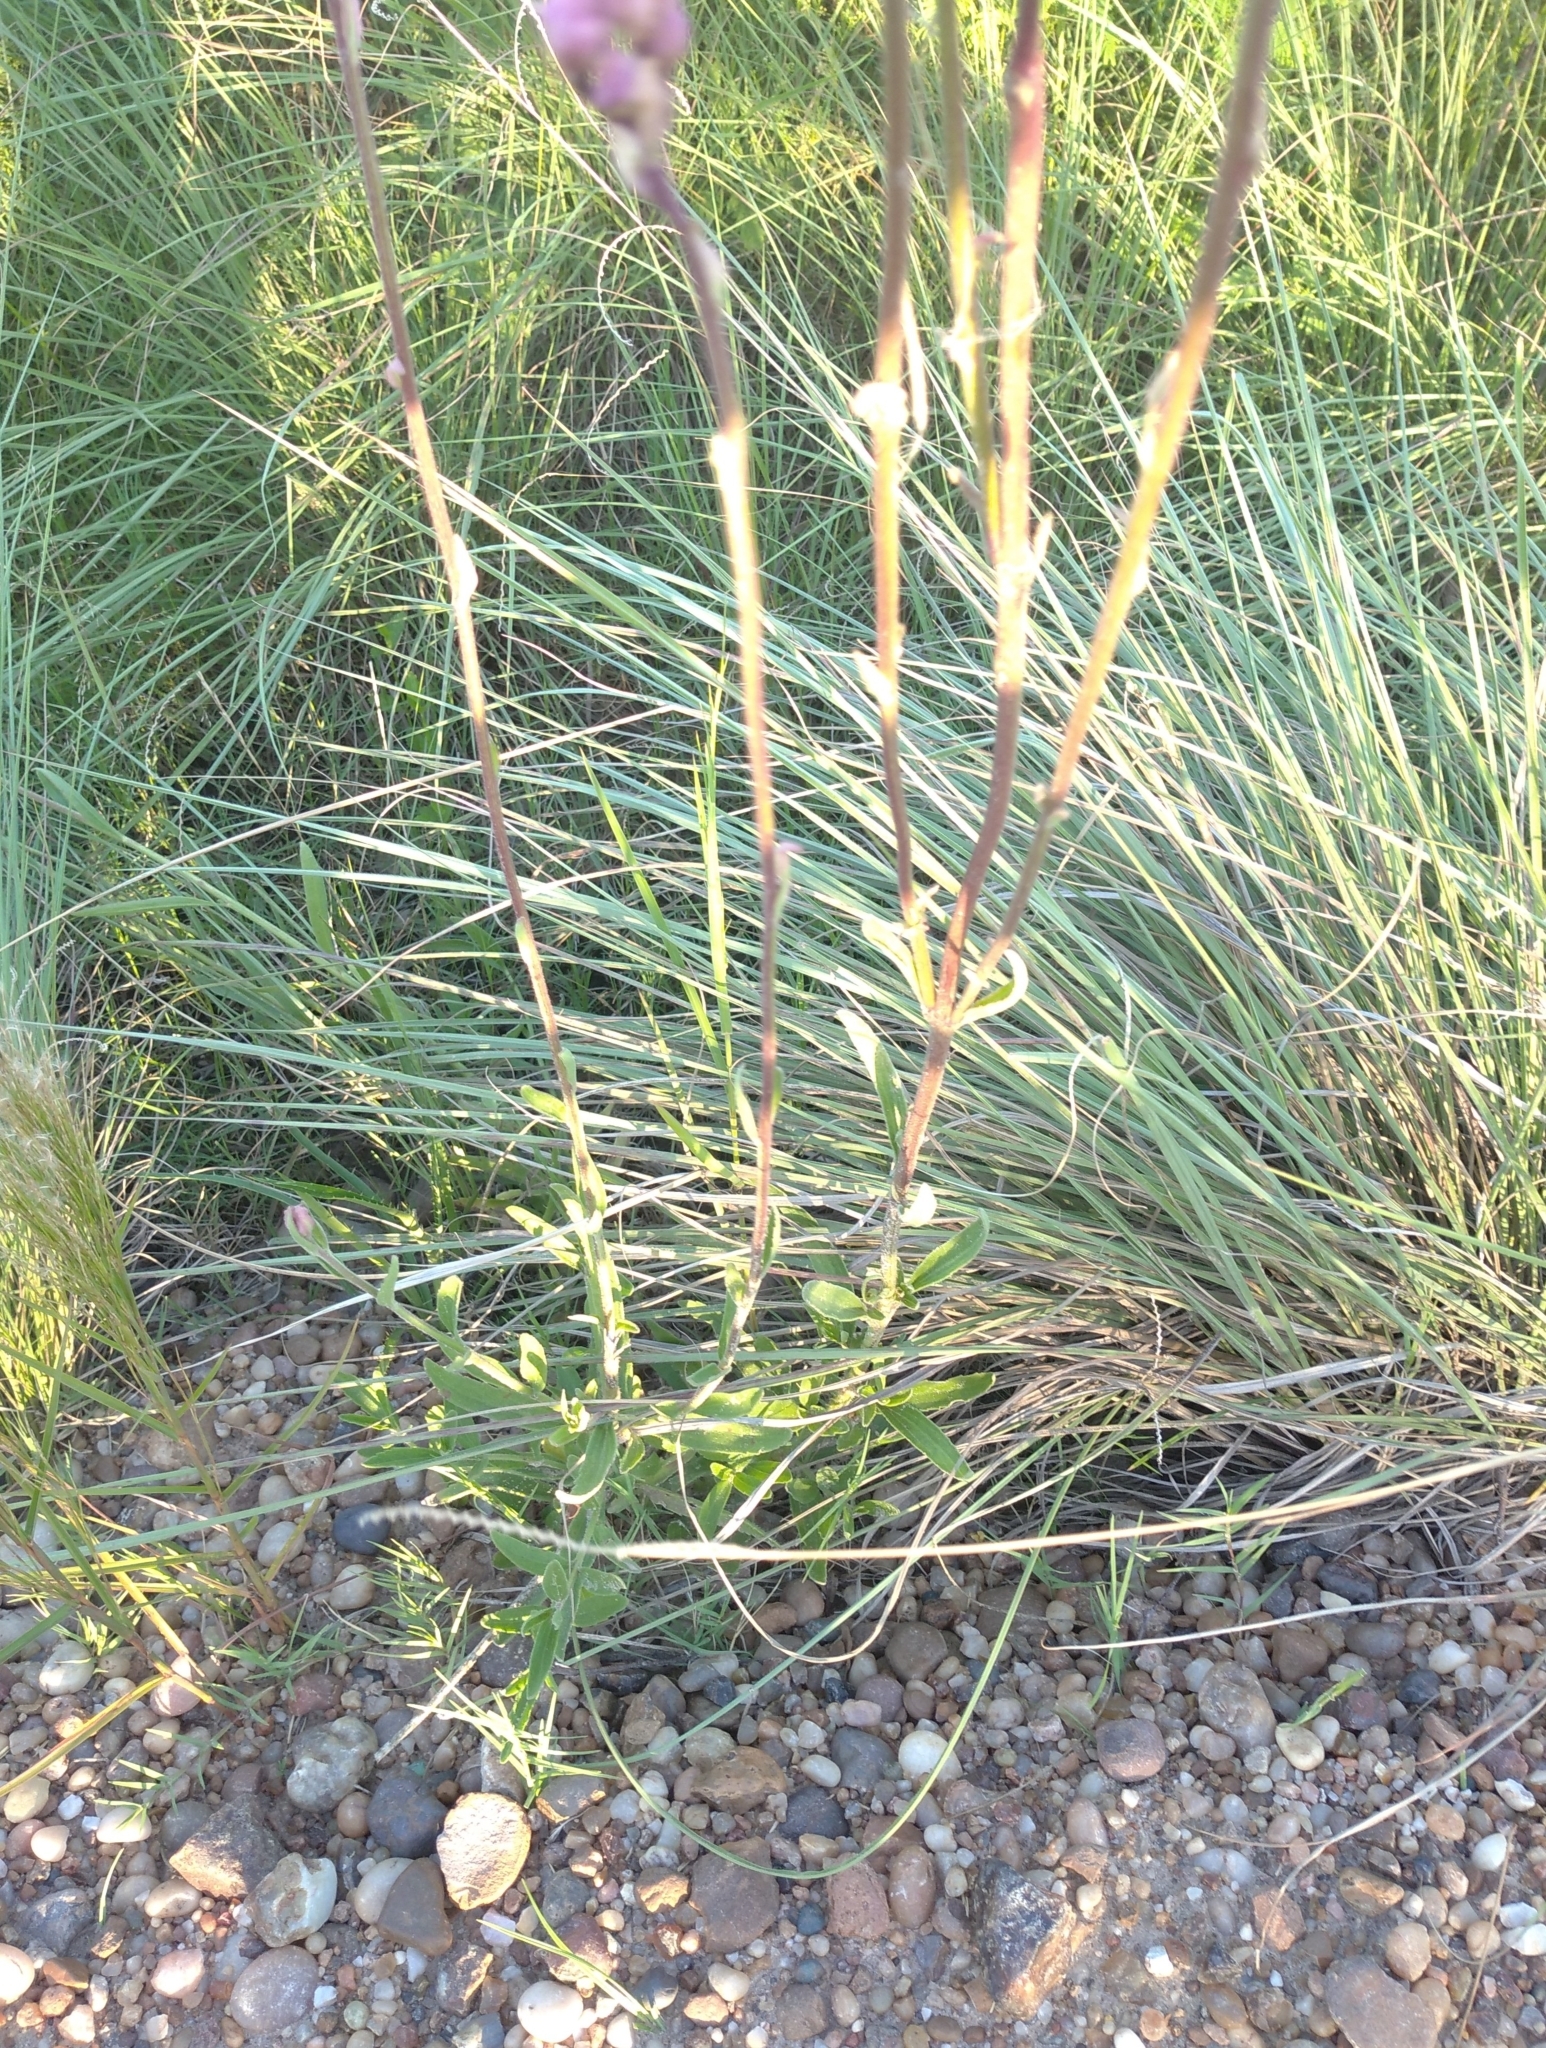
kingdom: Plantae
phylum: Tracheophyta
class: Magnoliopsida
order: Asterales
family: Asteraceae
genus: Campuloclinium
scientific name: Campuloclinium macrocephalum
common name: Pompomweed
